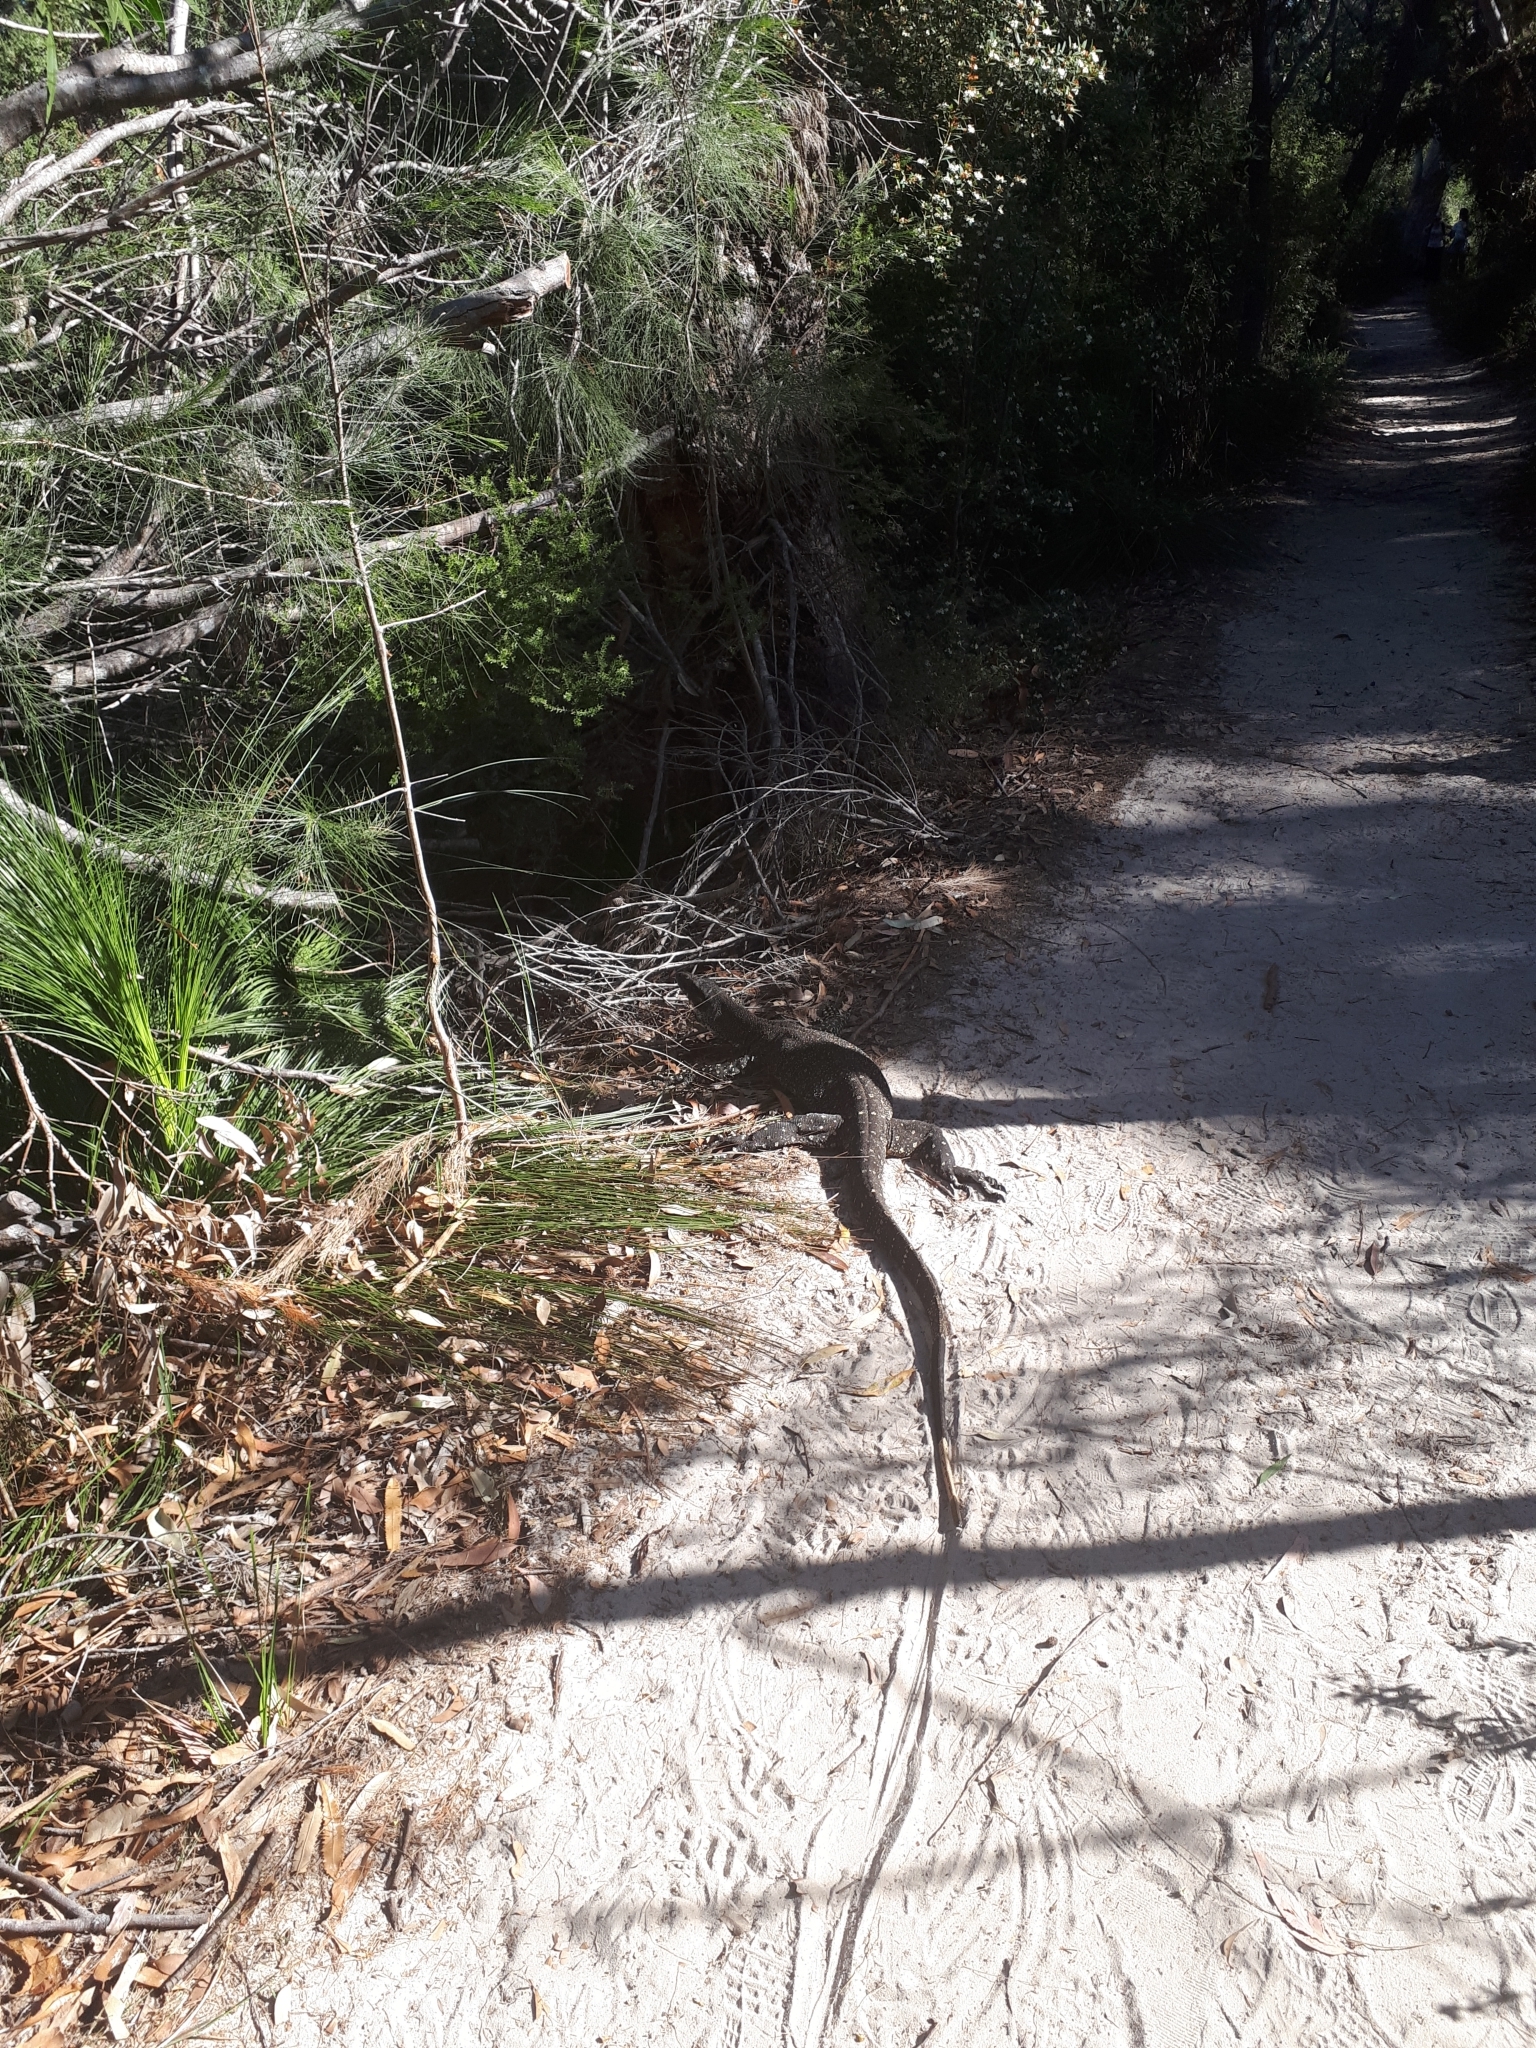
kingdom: Animalia
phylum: Chordata
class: Squamata
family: Varanidae
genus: Varanus
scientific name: Varanus varius
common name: Lace monitor
